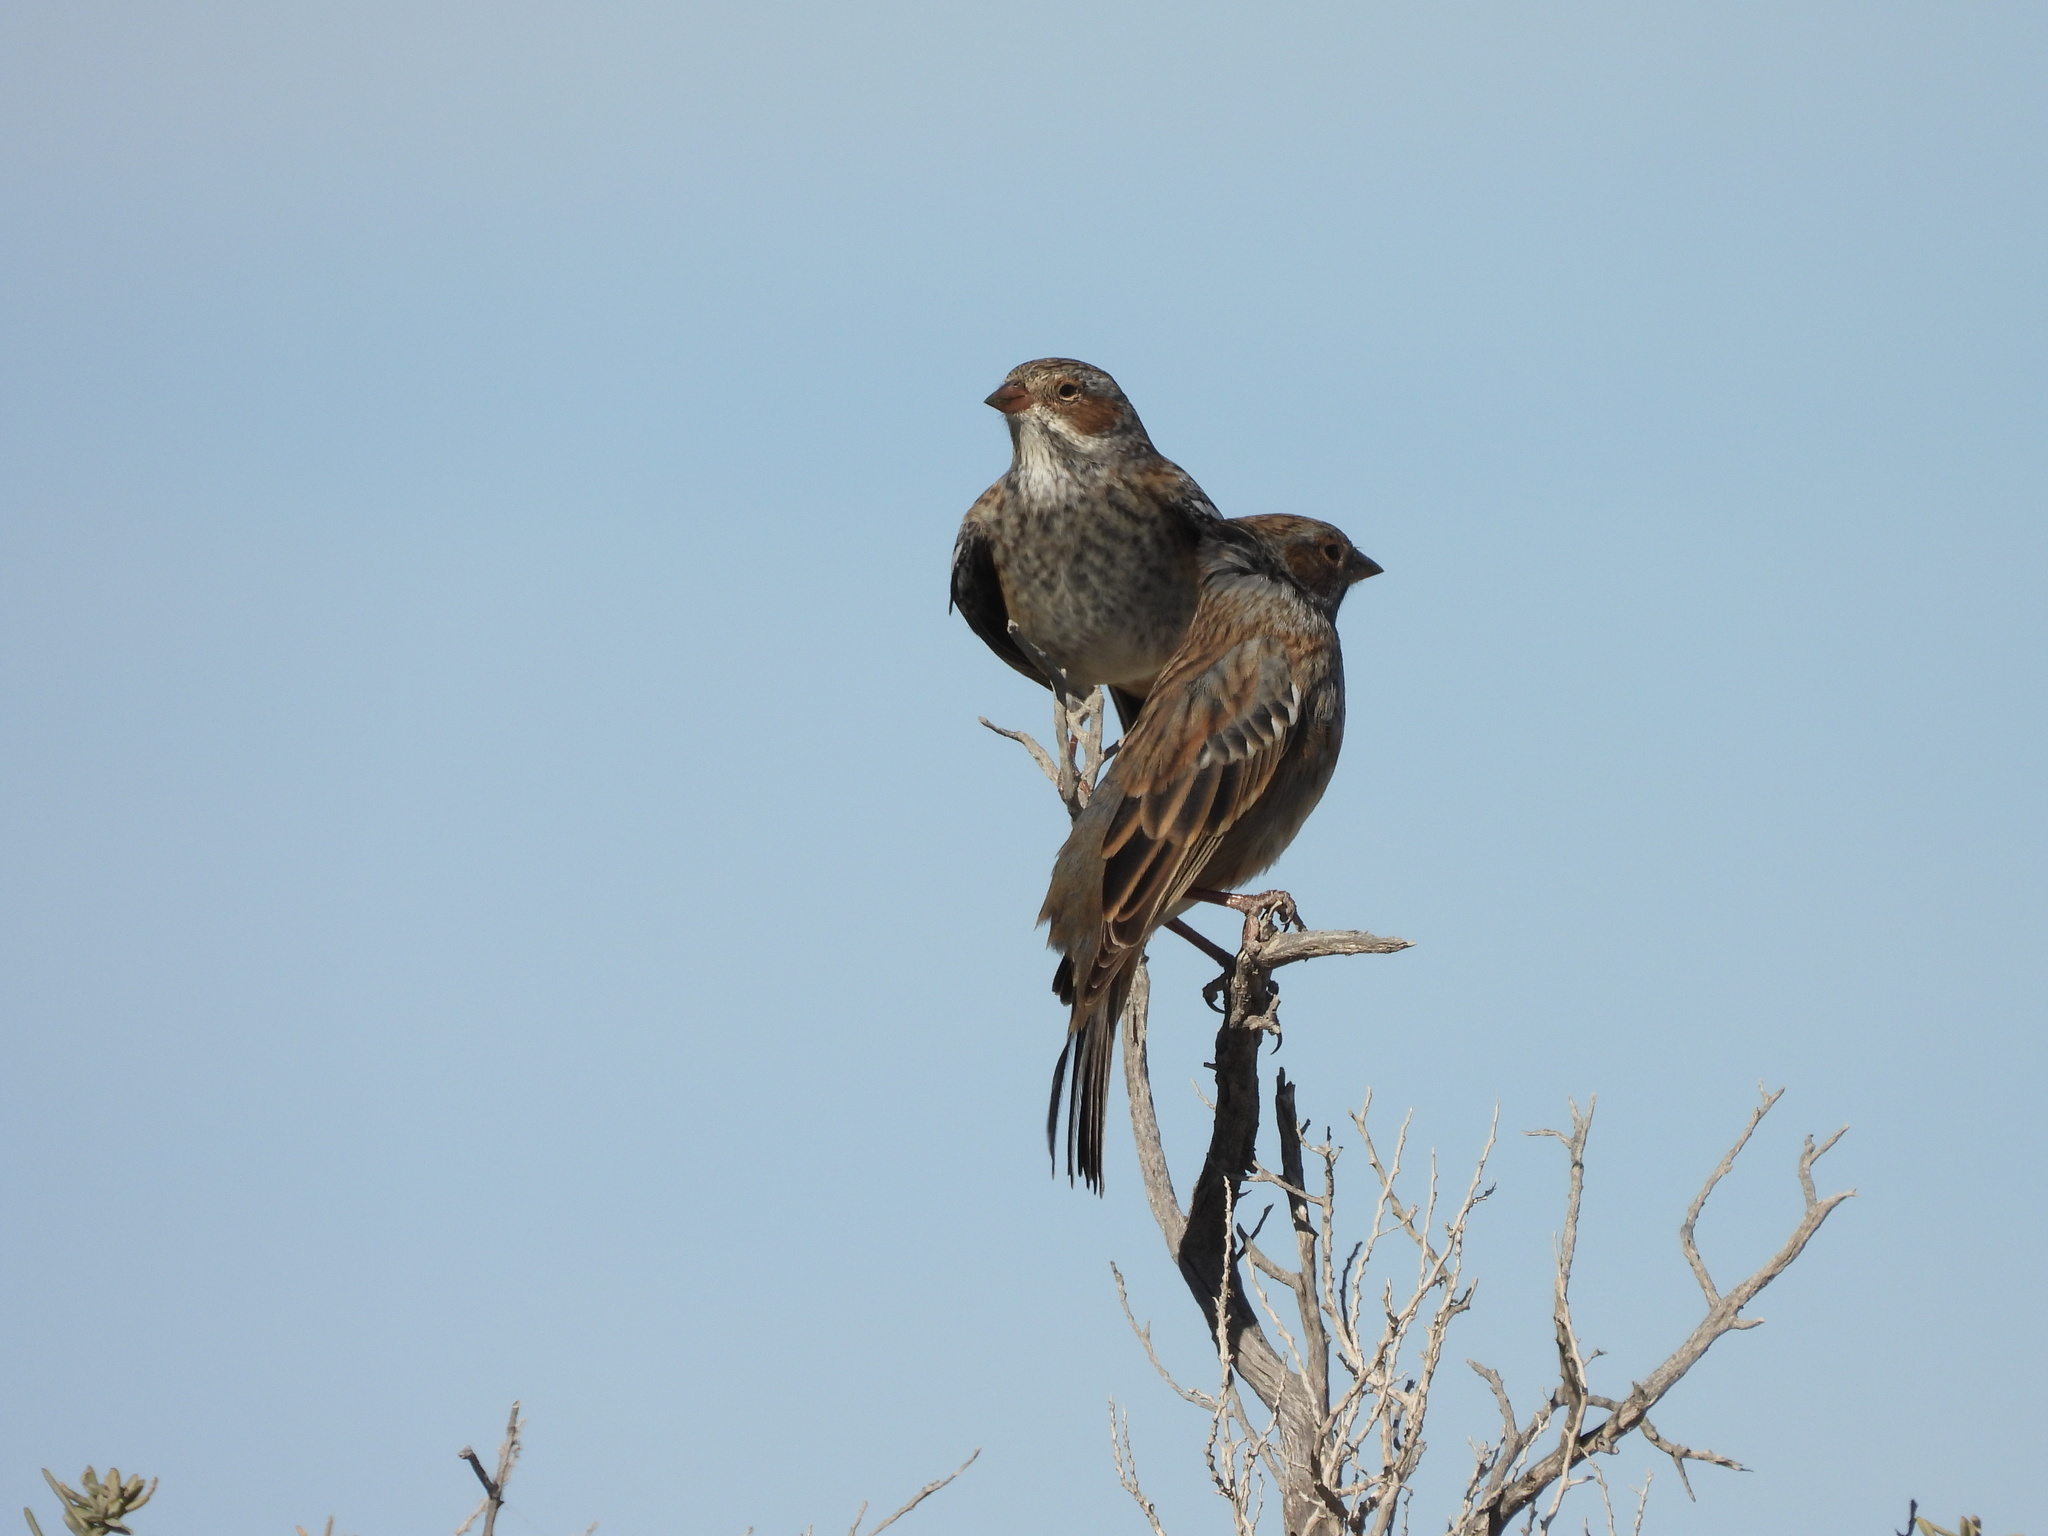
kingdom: Animalia
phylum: Chordata
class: Aves
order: Passeriformes
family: Thraupidae
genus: Rhopospina
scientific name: Rhopospina fruticeti
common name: Mourning sierra finch
